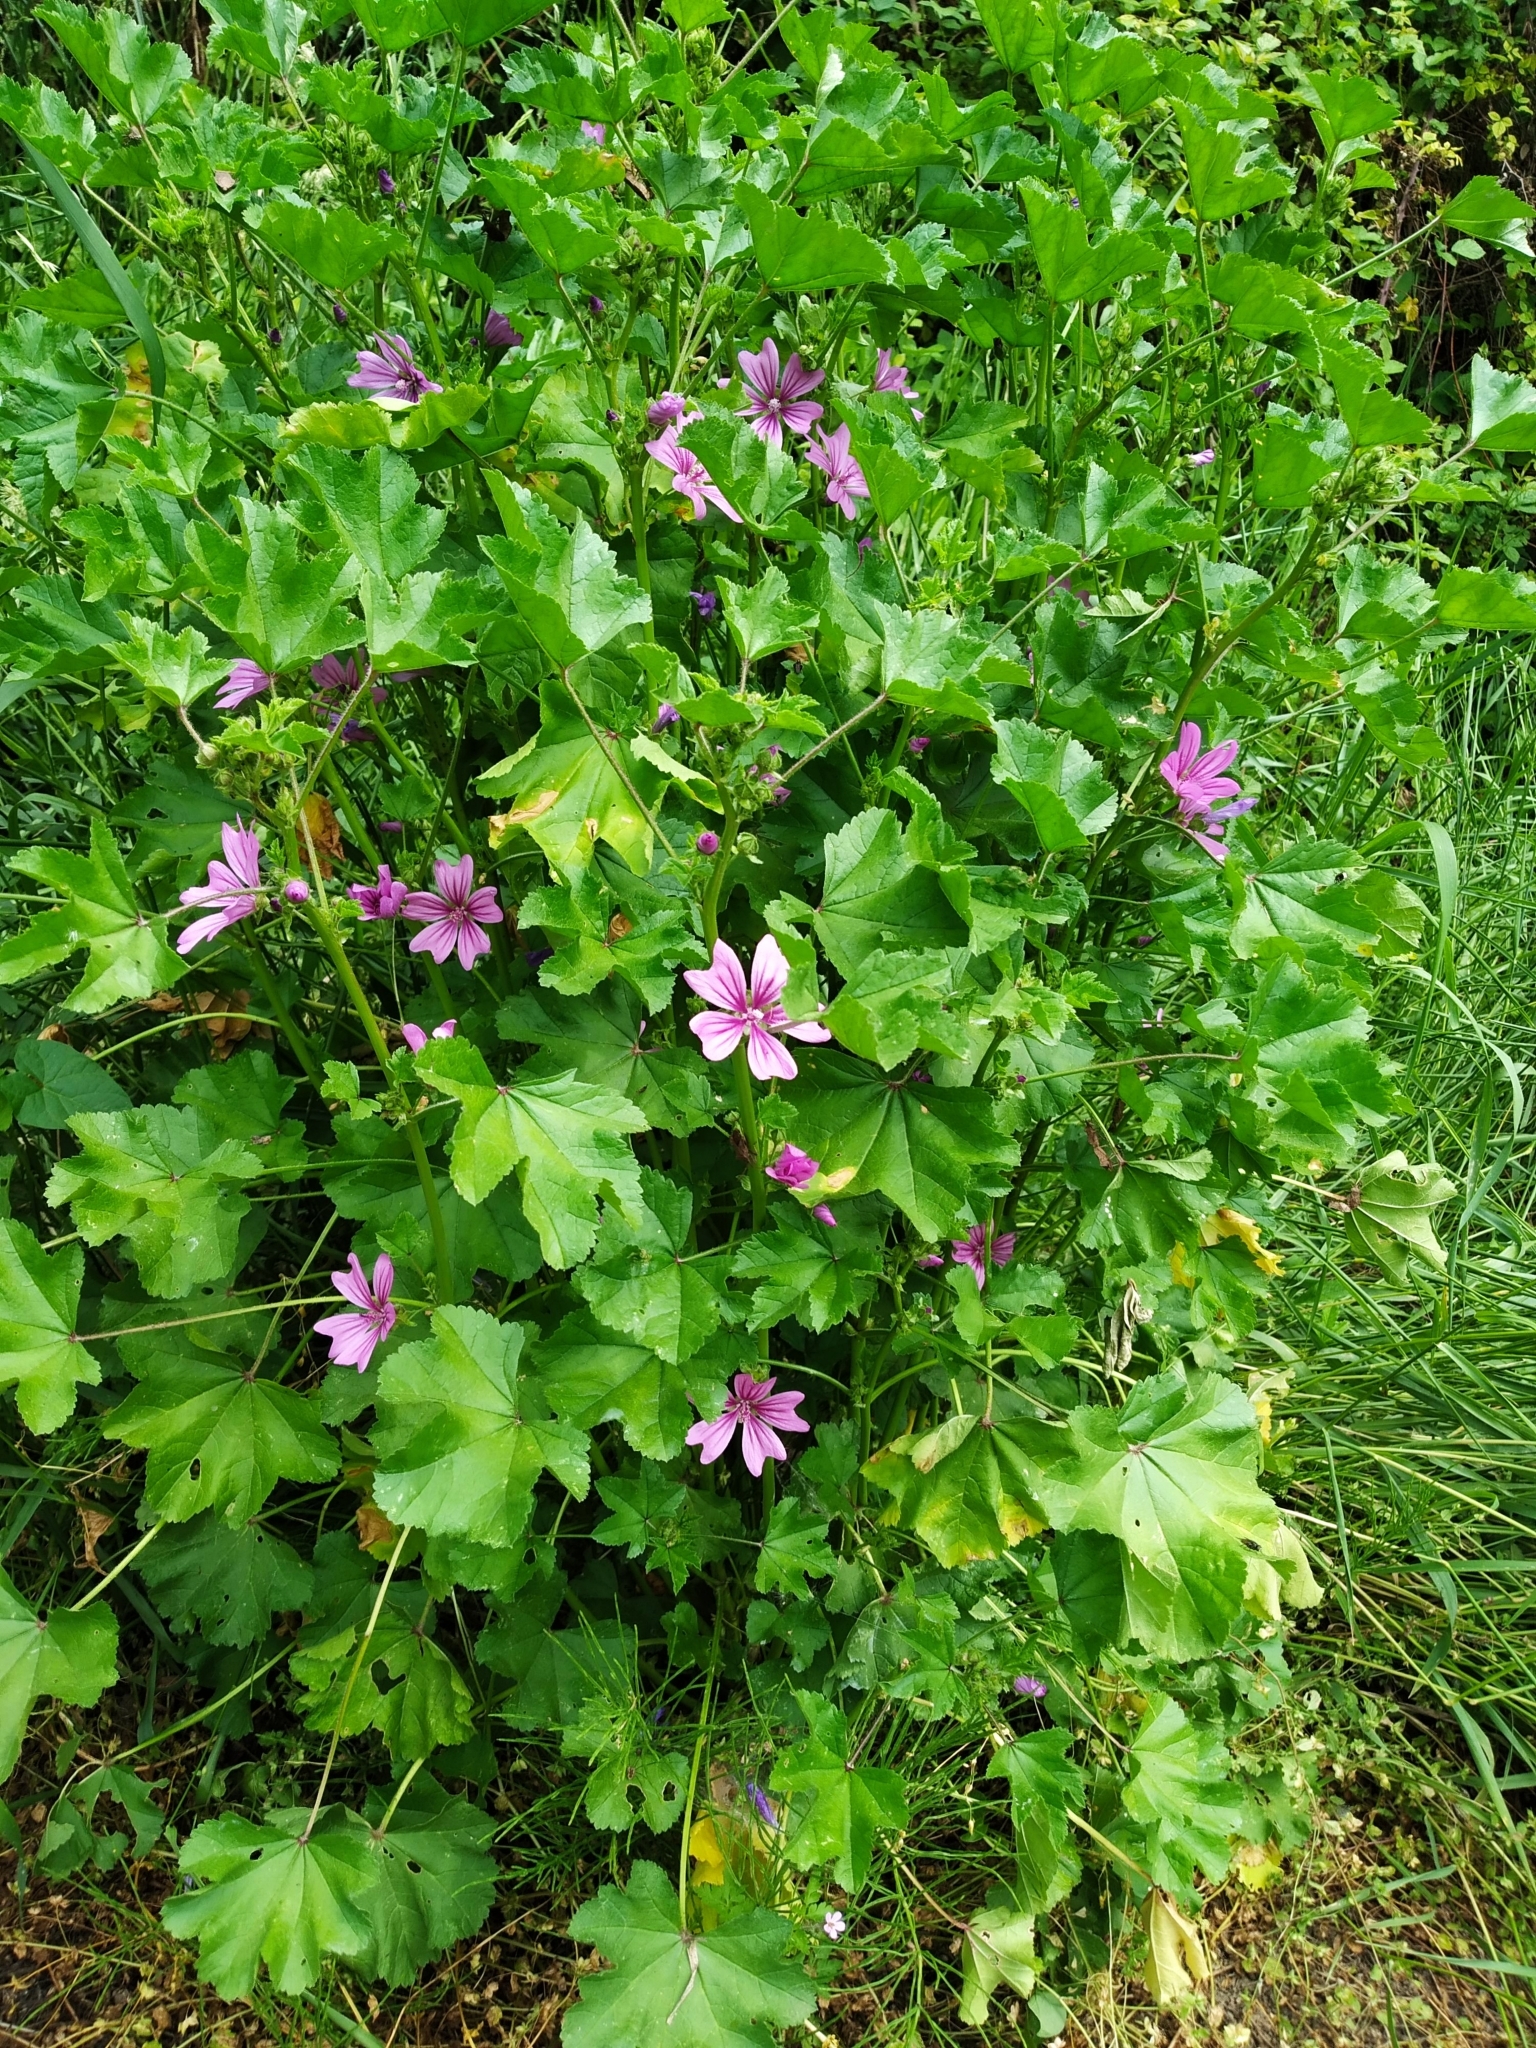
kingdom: Plantae
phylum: Tracheophyta
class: Magnoliopsida
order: Malvales
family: Malvaceae
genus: Malva
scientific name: Malva sylvestris
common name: Common mallow
